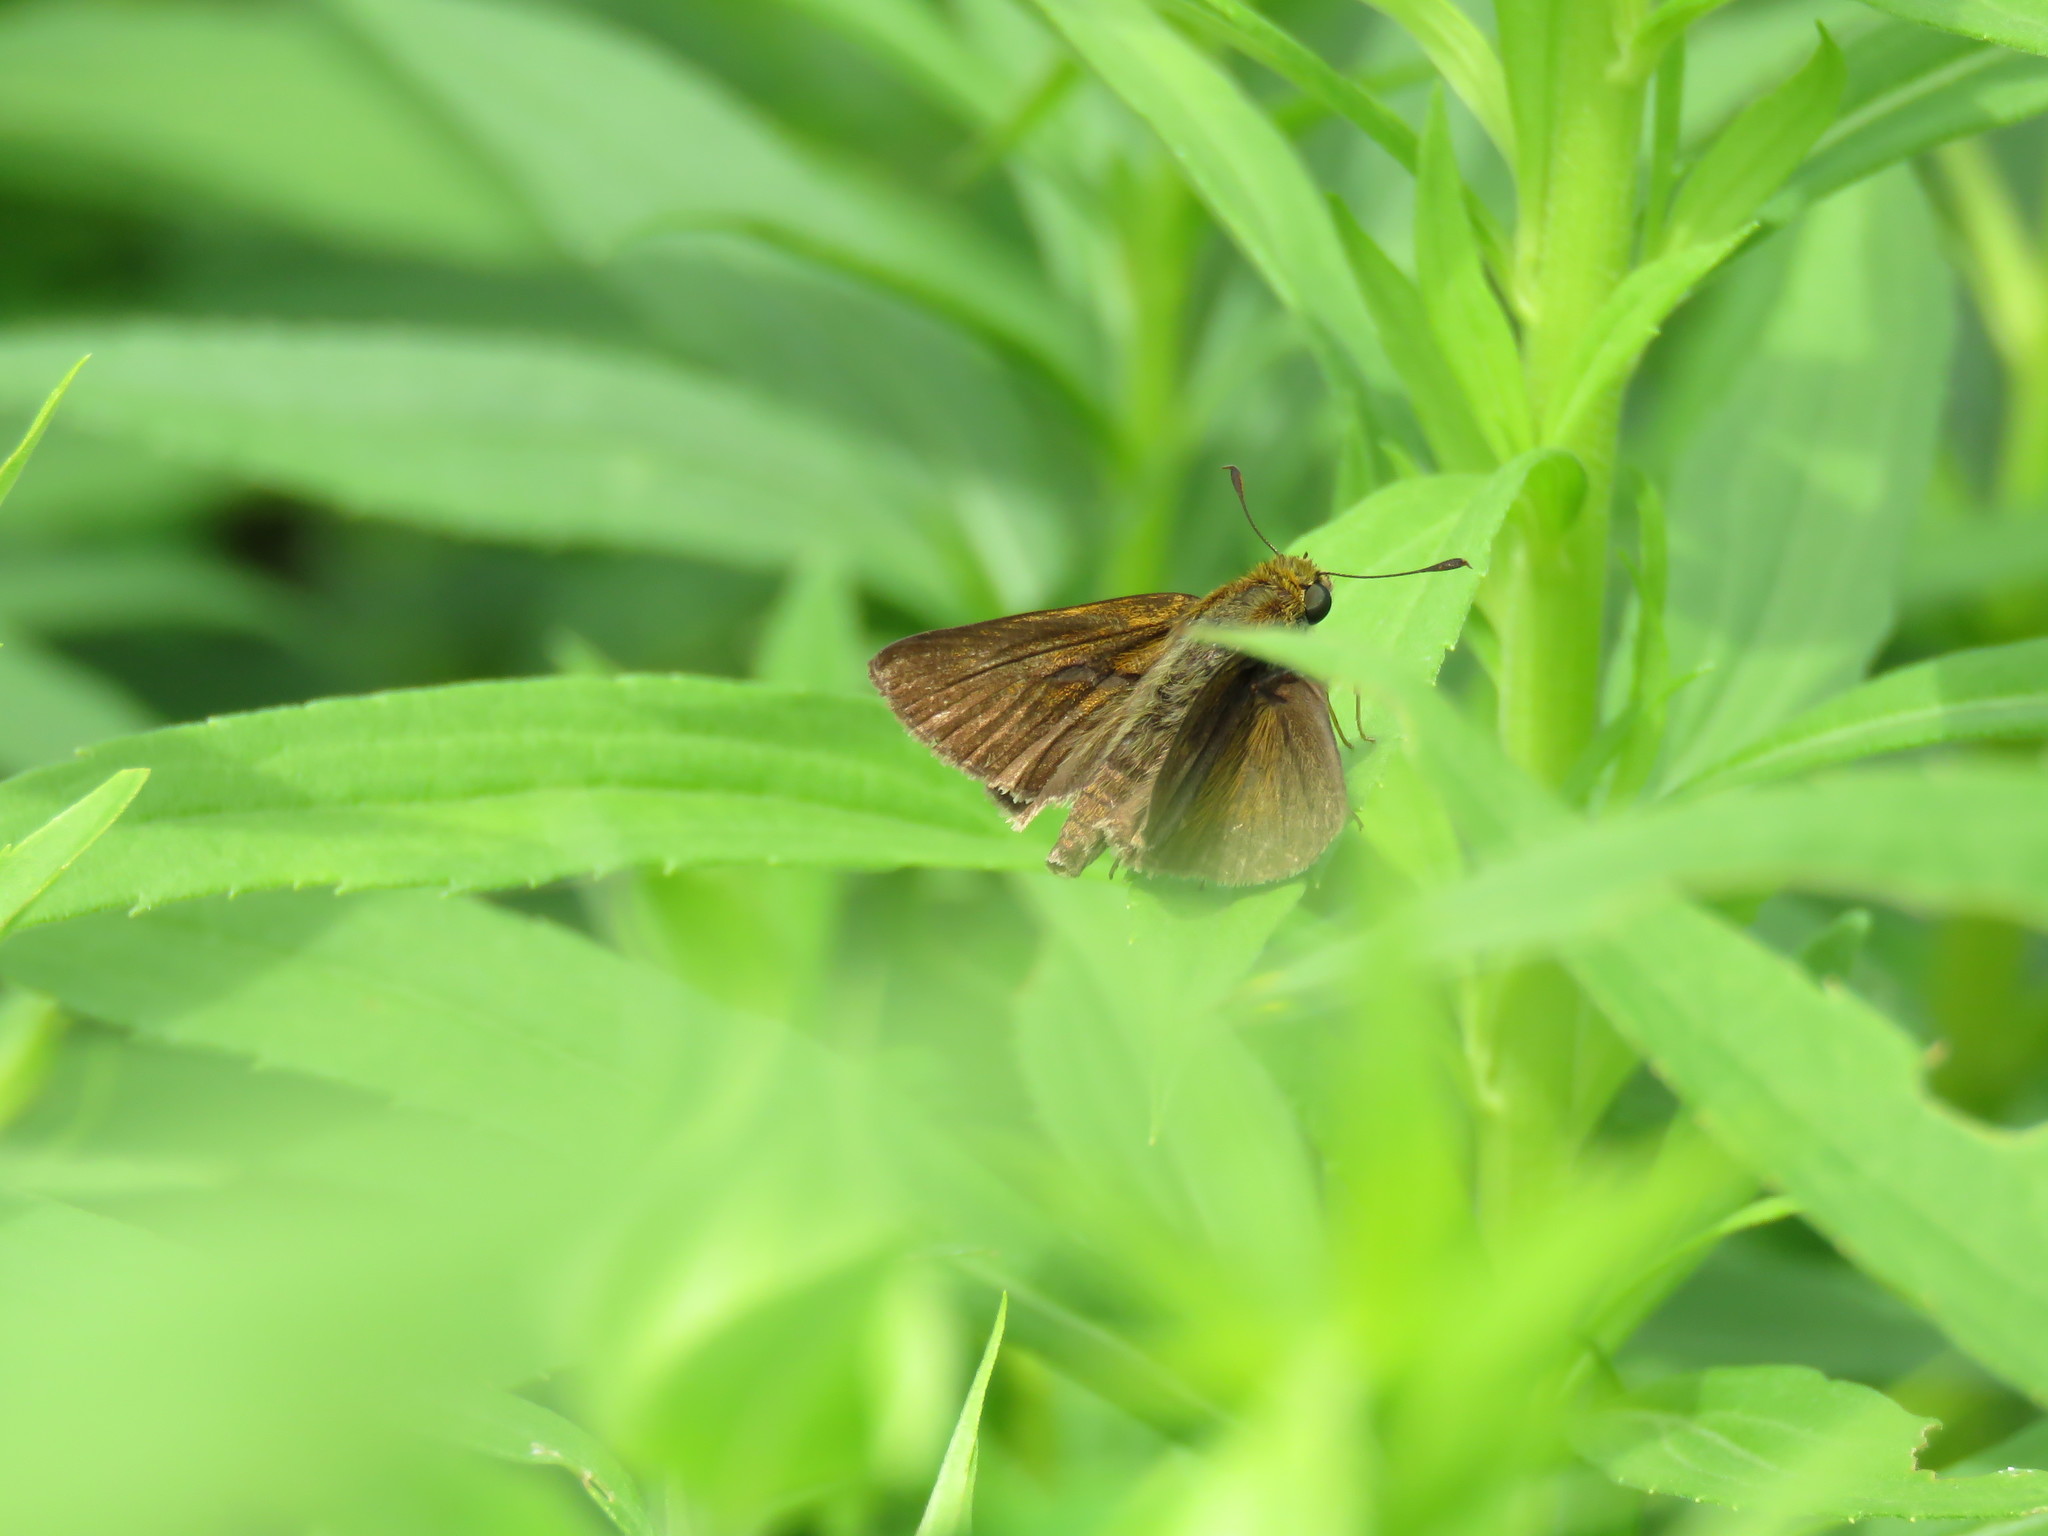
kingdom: Animalia
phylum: Arthropoda
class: Insecta
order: Lepidoptera
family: Hesperiidae
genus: Euphyes
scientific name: Euphyes vestris
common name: Dun skipper
